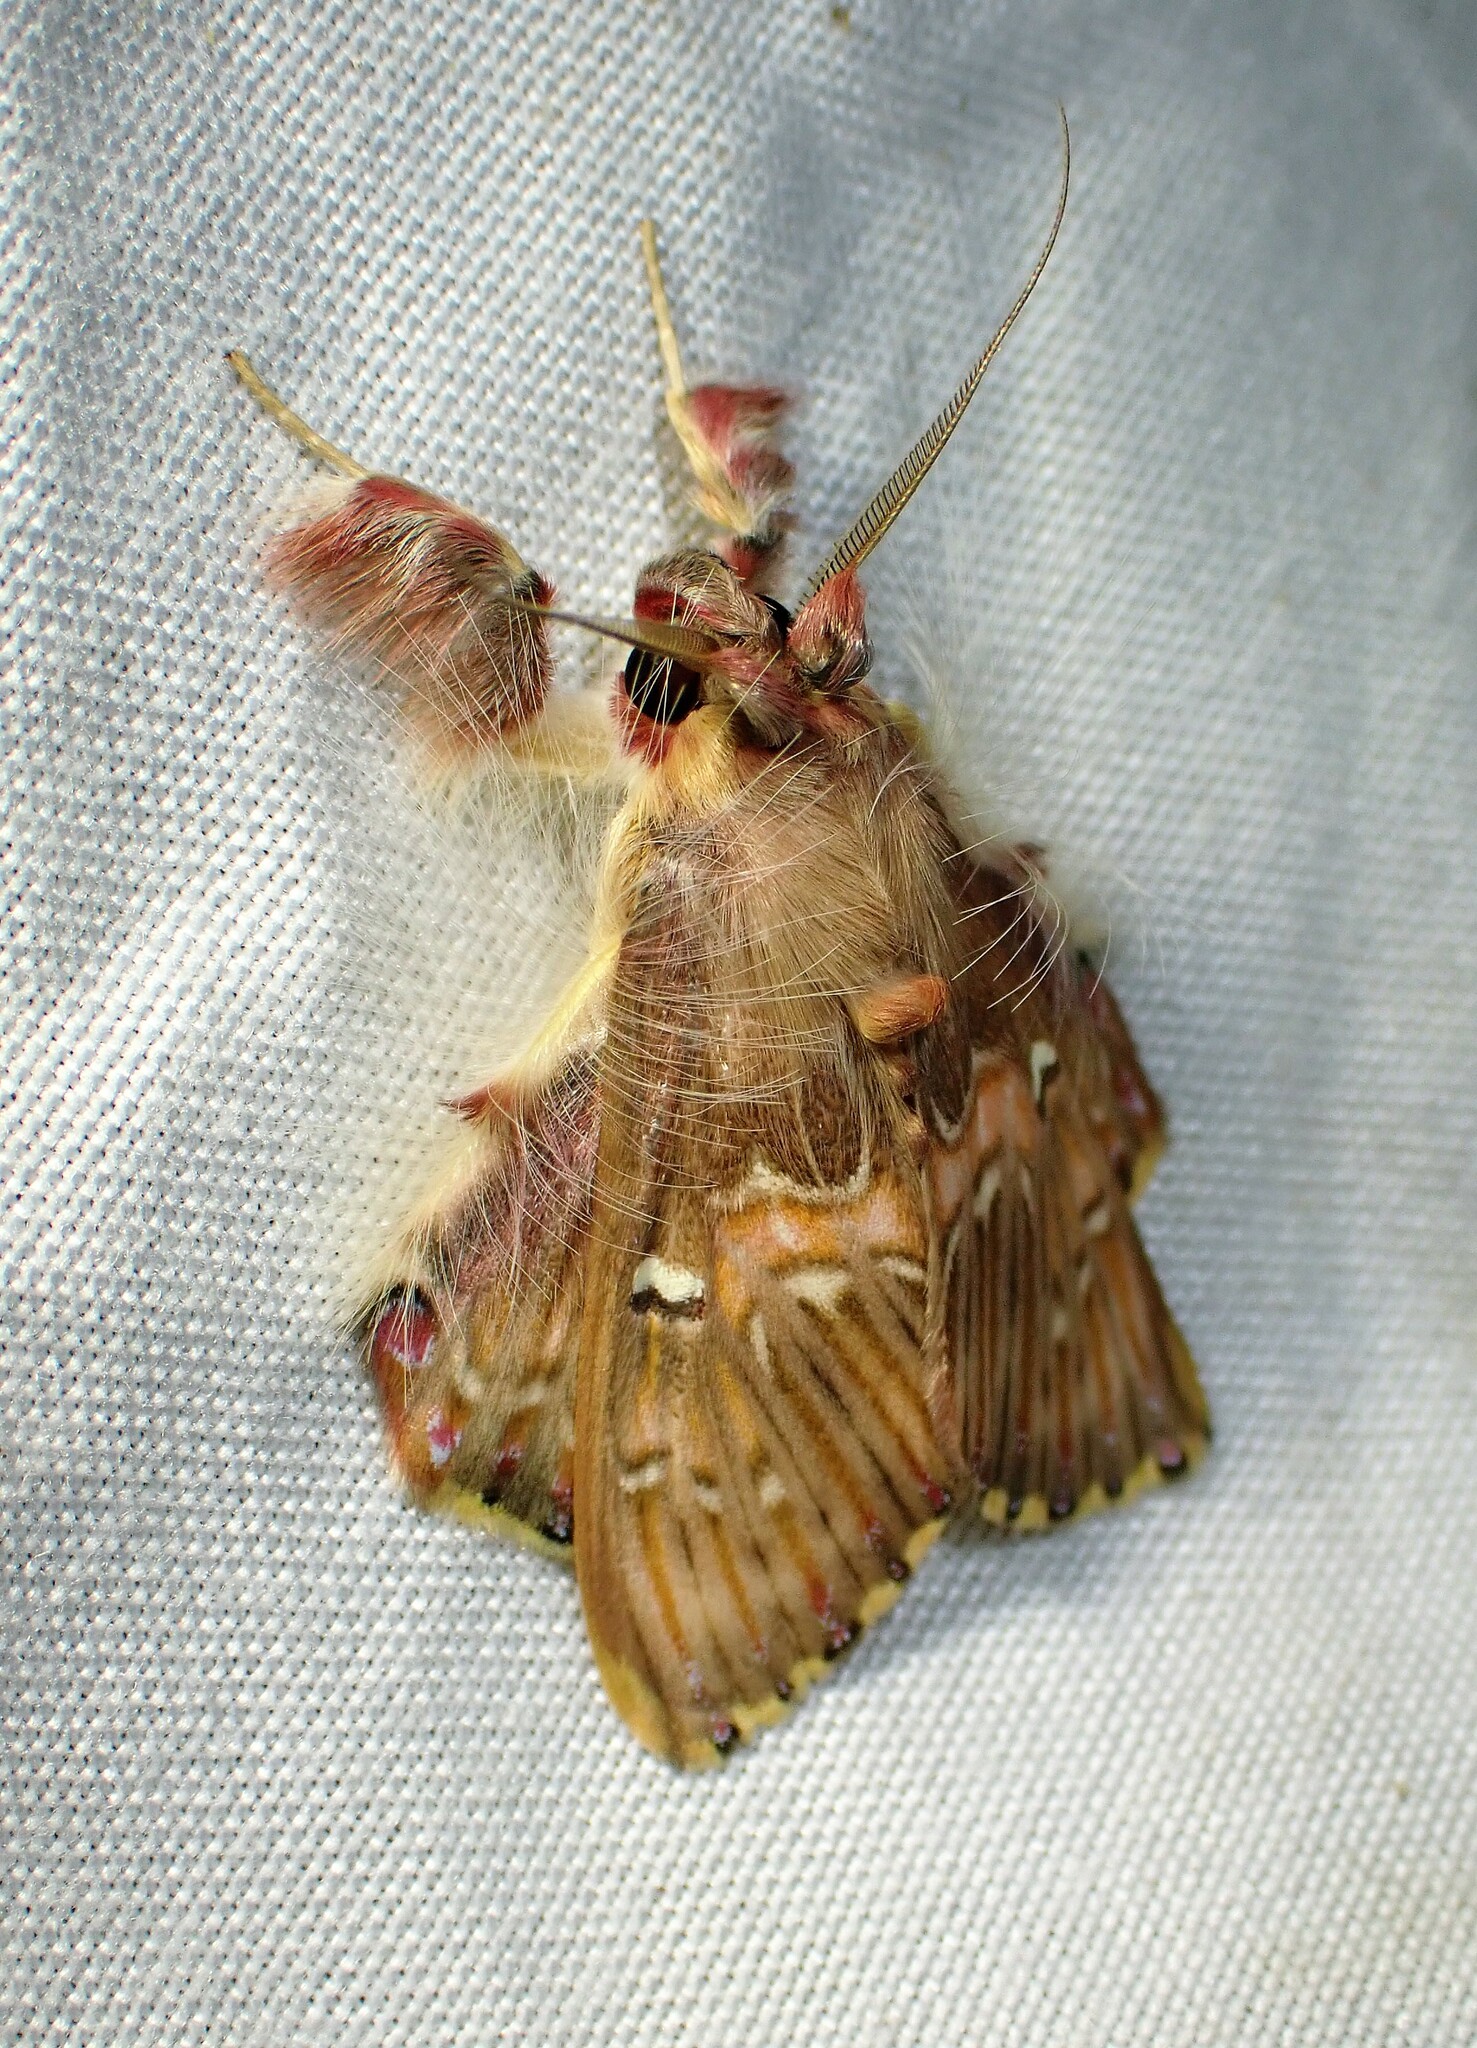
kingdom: Animalia
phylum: Arthropoda
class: Insecta
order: Lepidoptera
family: Erebidae
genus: Sosxetra
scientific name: Sosxetra grata
